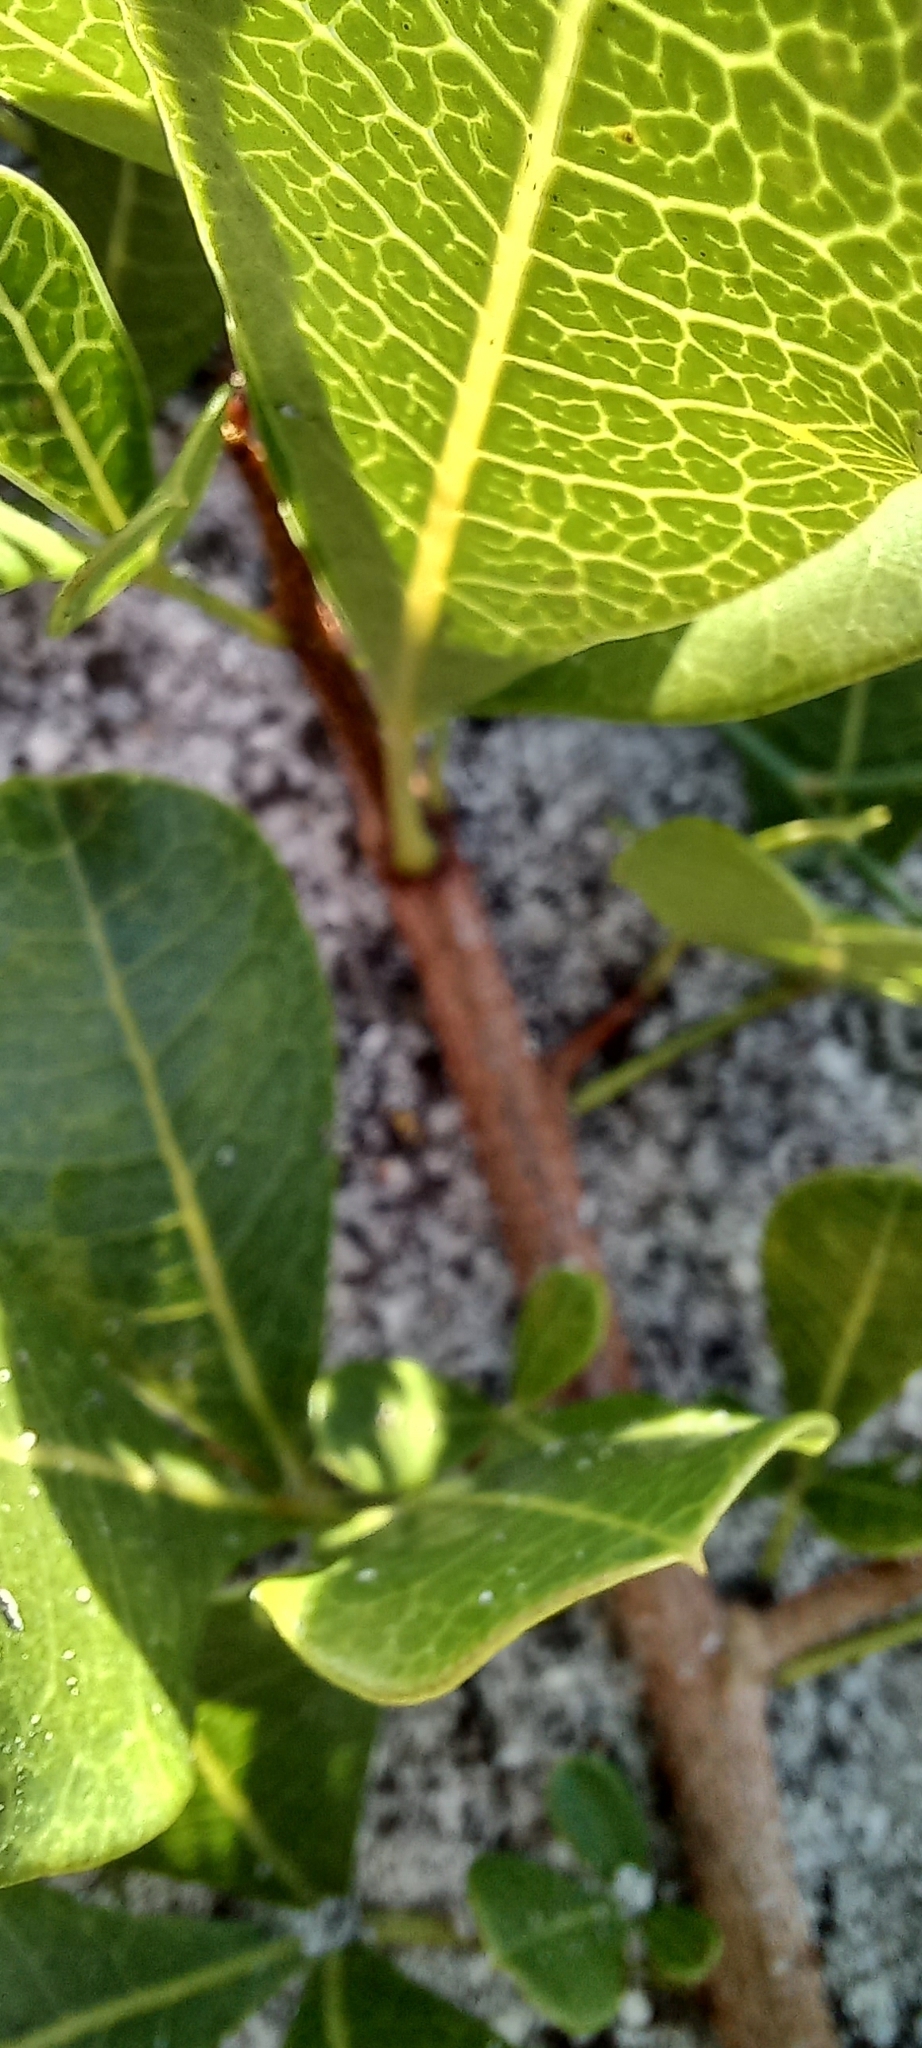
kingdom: Plantae
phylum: Tracheophyta
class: Magnoliopsida
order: Sapindales
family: Anacardiaceae
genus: Searsia
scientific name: Searsia laevigata
